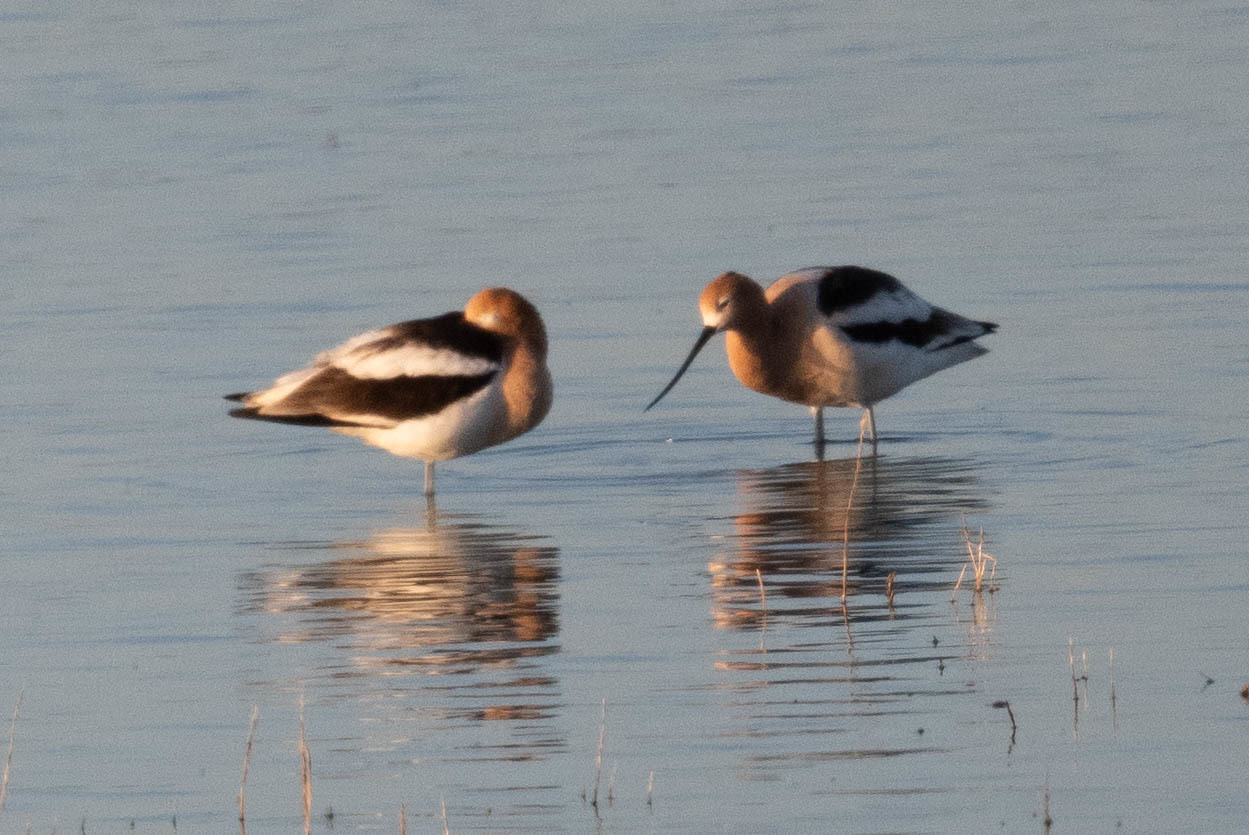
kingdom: Animalia
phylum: Chordata
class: Aves
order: Charadriiformes
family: Recurvirostridae
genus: Recurvirostra
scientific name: Recurvirostra americana
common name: American avocet
